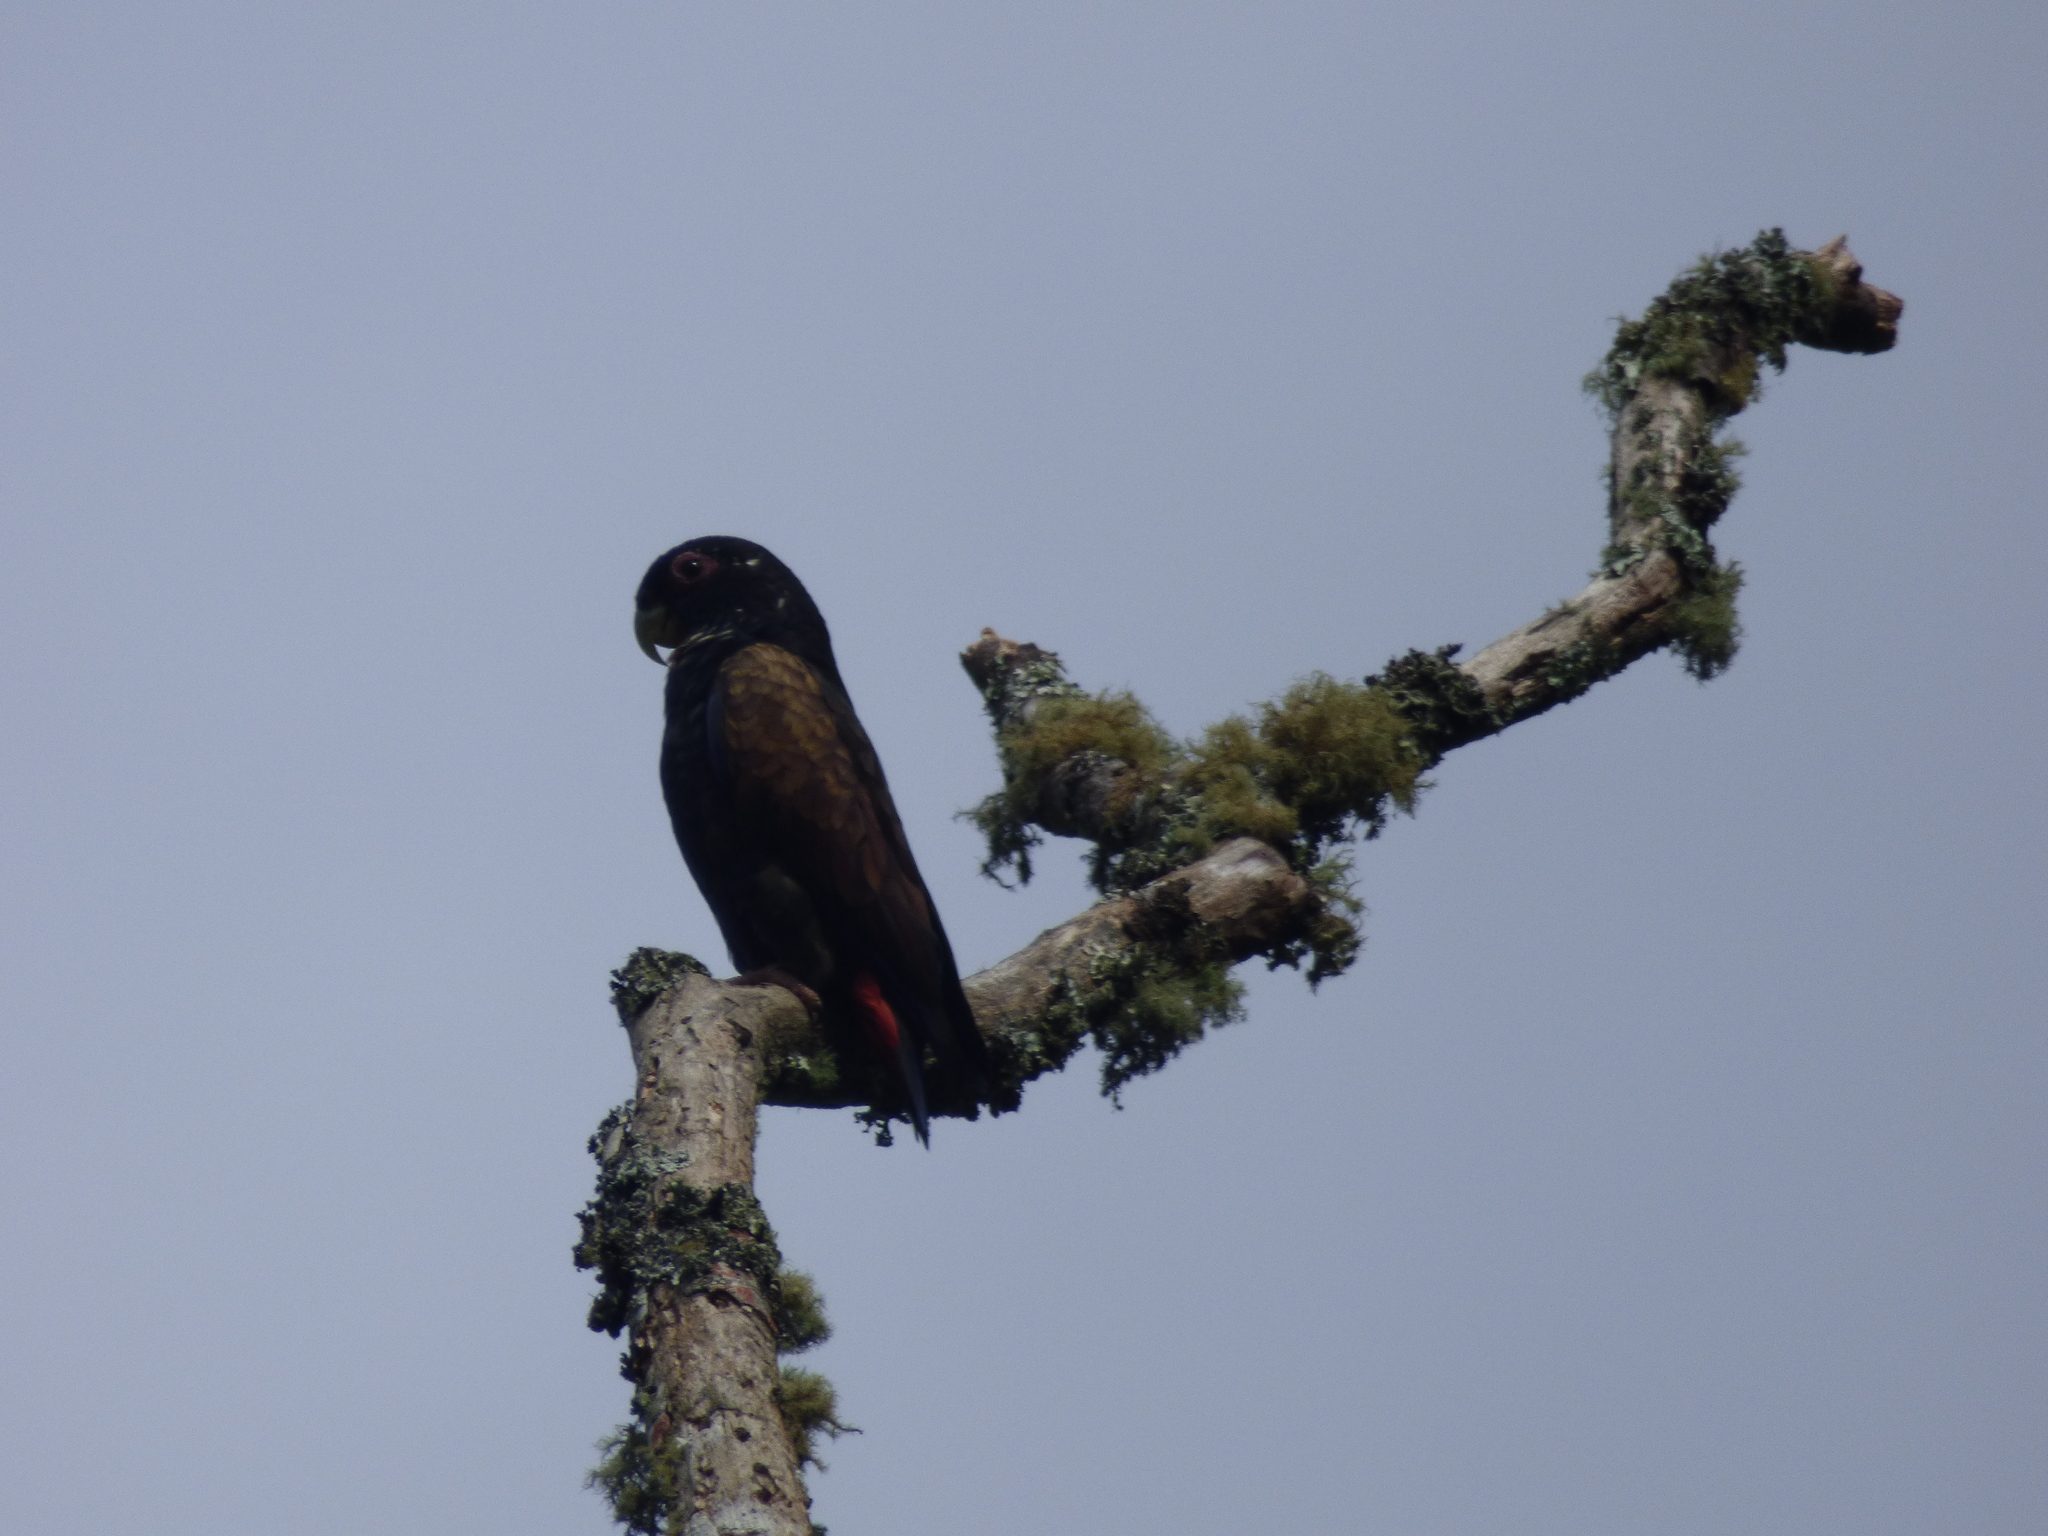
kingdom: Animalia
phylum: Chordata
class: Aves
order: Psittaciformes
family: Psittacidae
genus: Pionus
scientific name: Pionus chalcopterus
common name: Bronze-winged parrot
